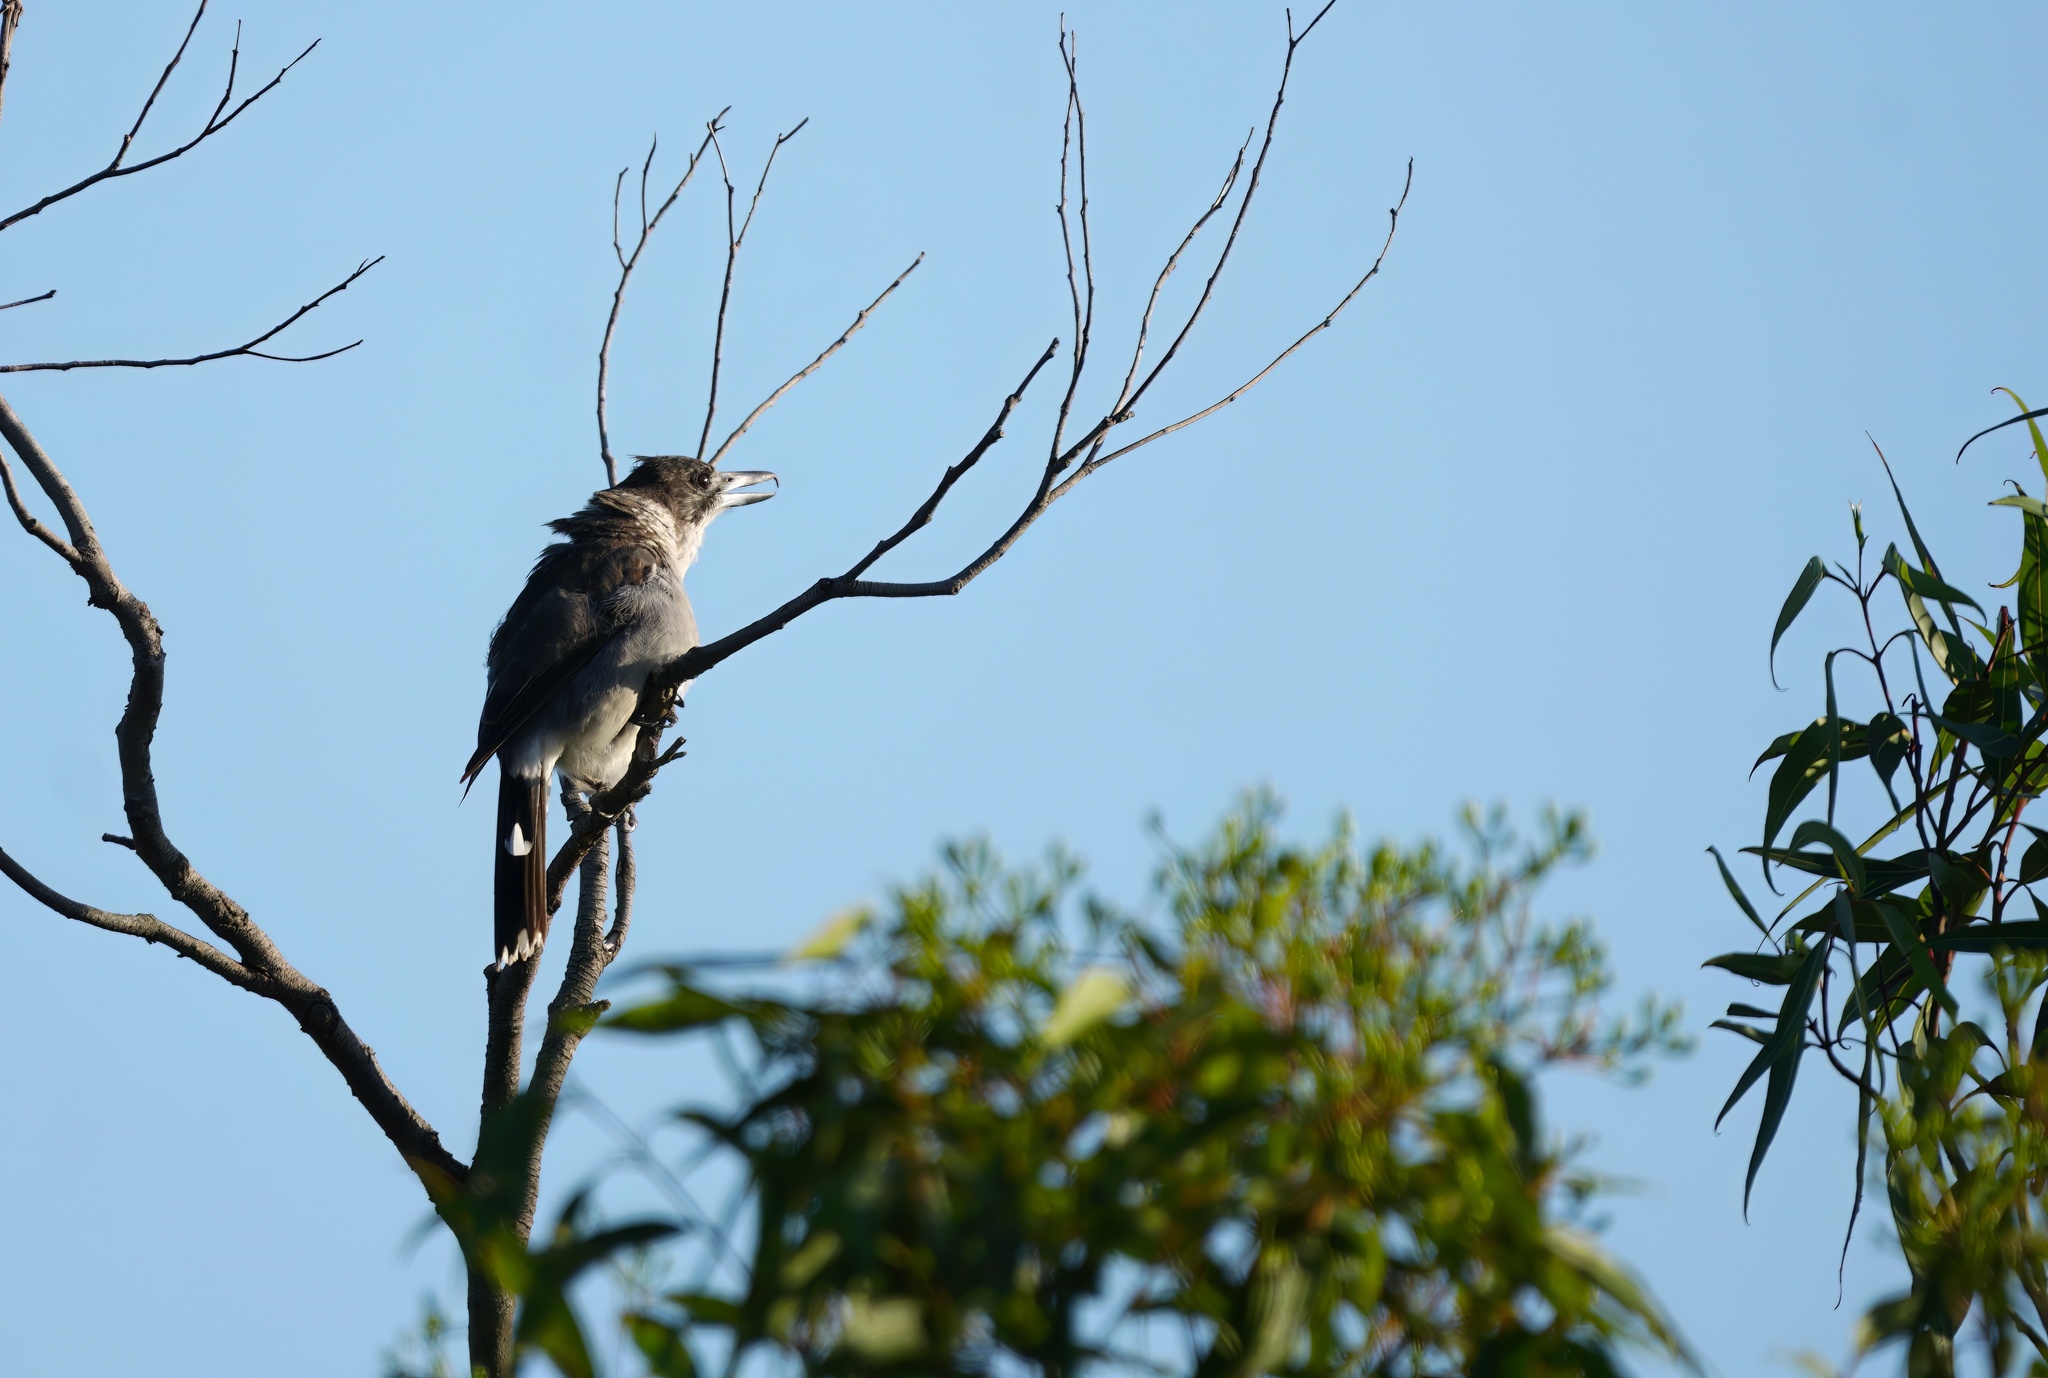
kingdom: Animalia
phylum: Chordata
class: Aves
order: Passeriformes
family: Cracticidae
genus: Cracticus
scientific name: Cracticus torquatus
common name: Grey butcherbird
